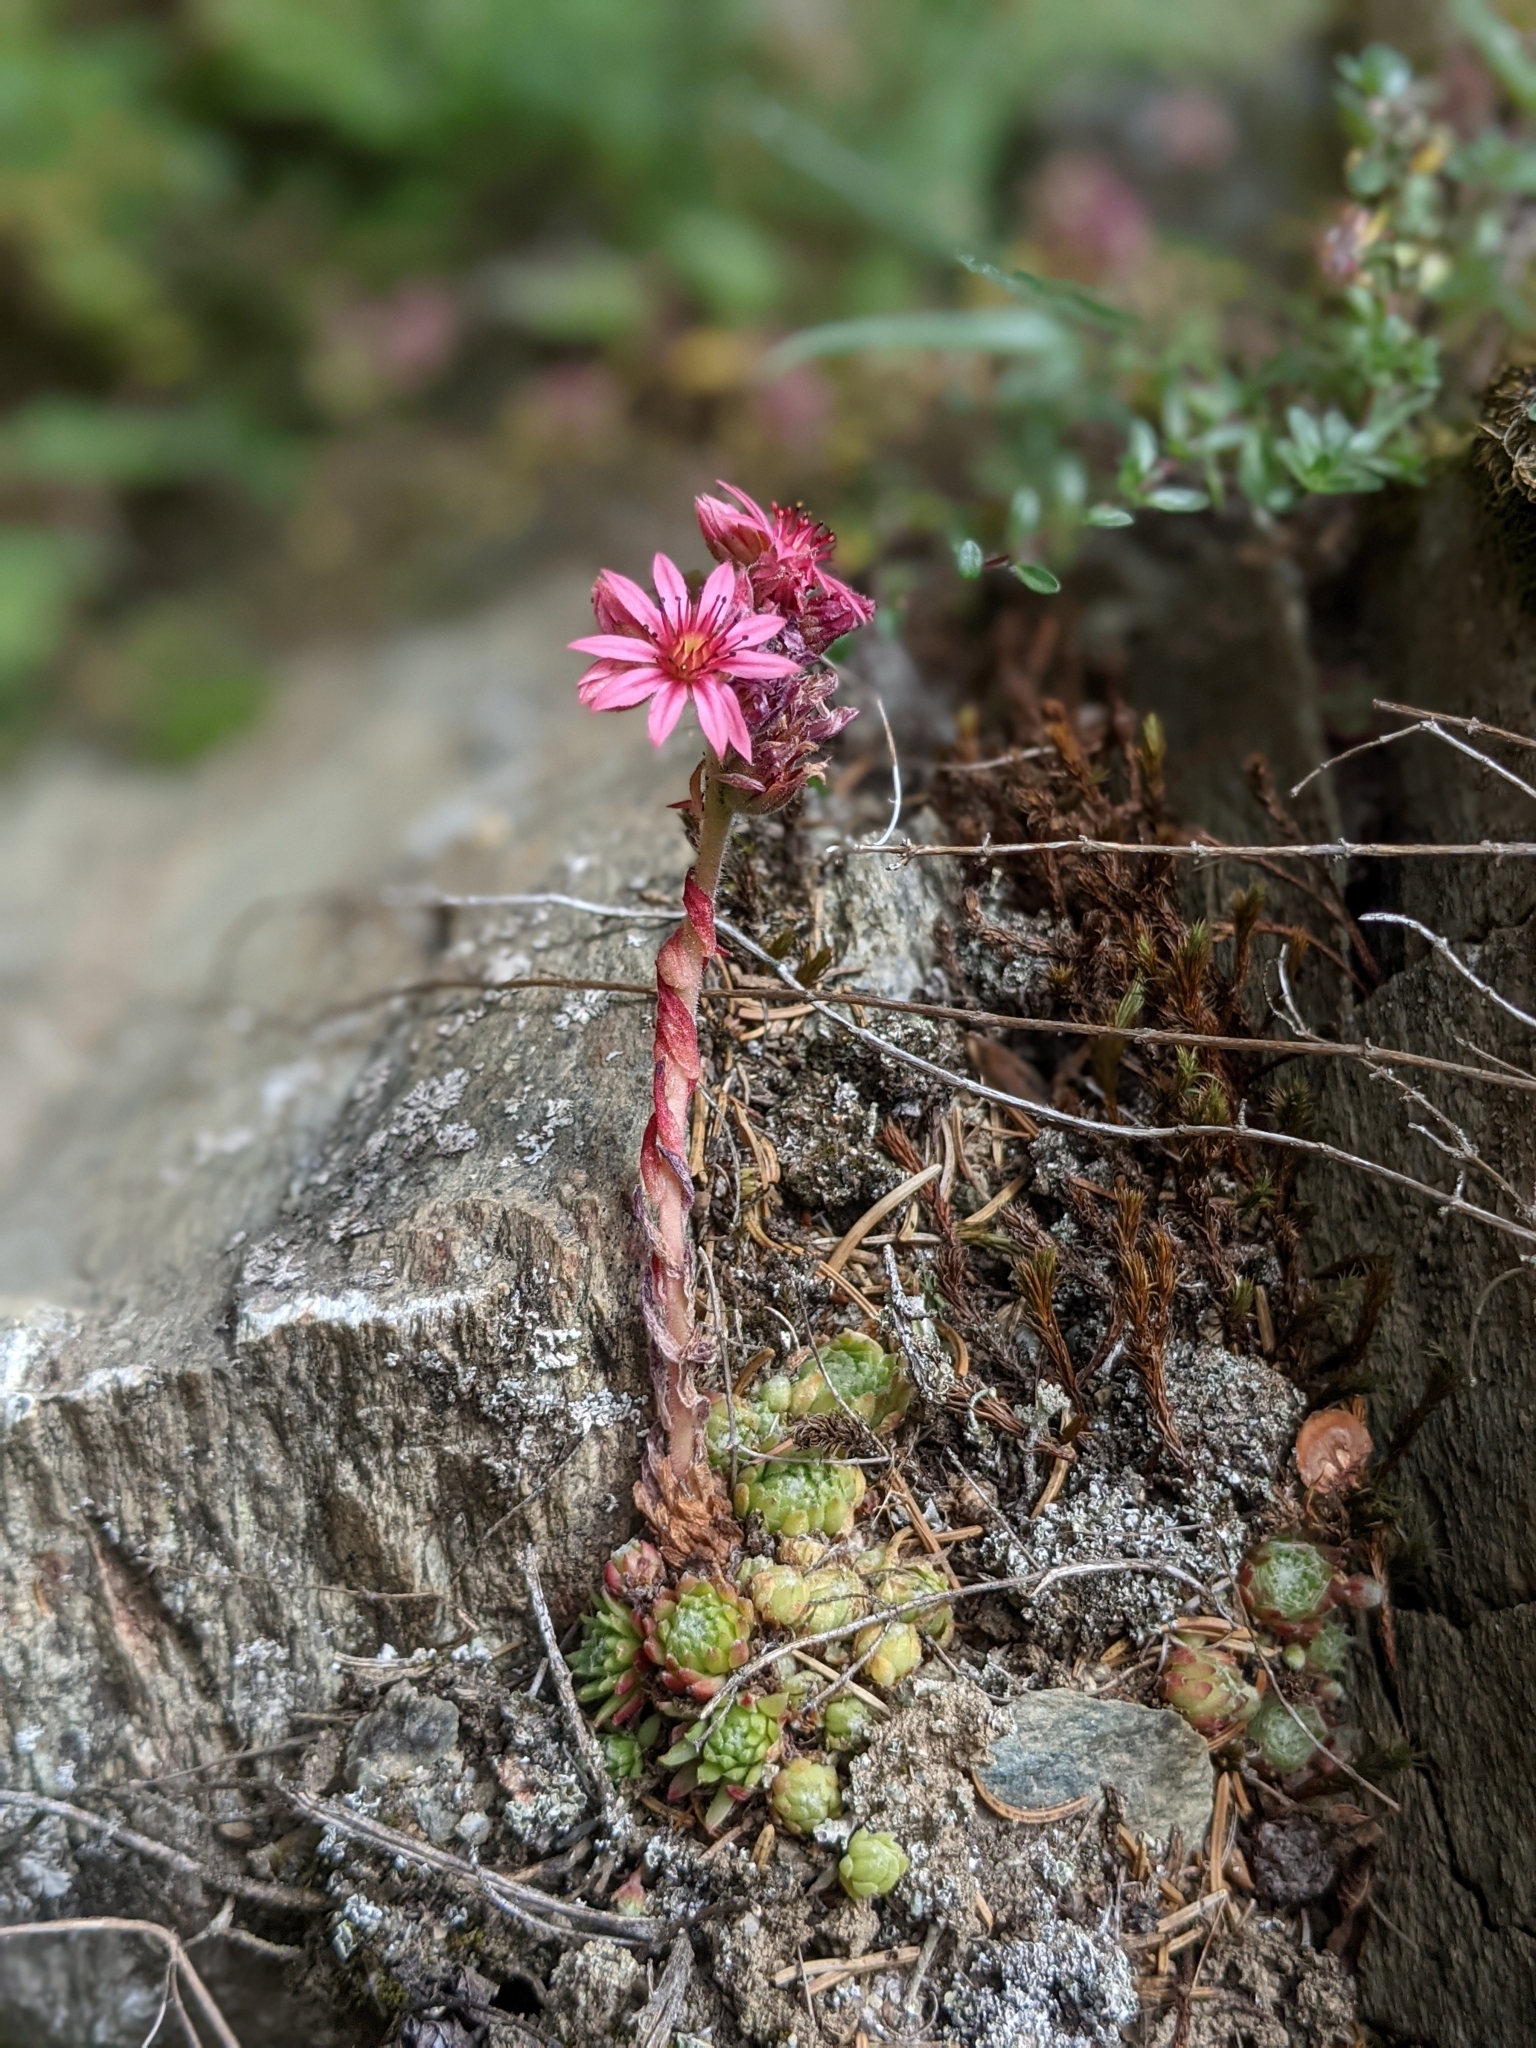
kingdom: Plantae
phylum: Tracheophyta
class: Magnoliopsida
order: Saxifragales
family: Crassulaceae
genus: Sempervivum
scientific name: Sempervivum arachnoideum
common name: Cobweb house-leek
